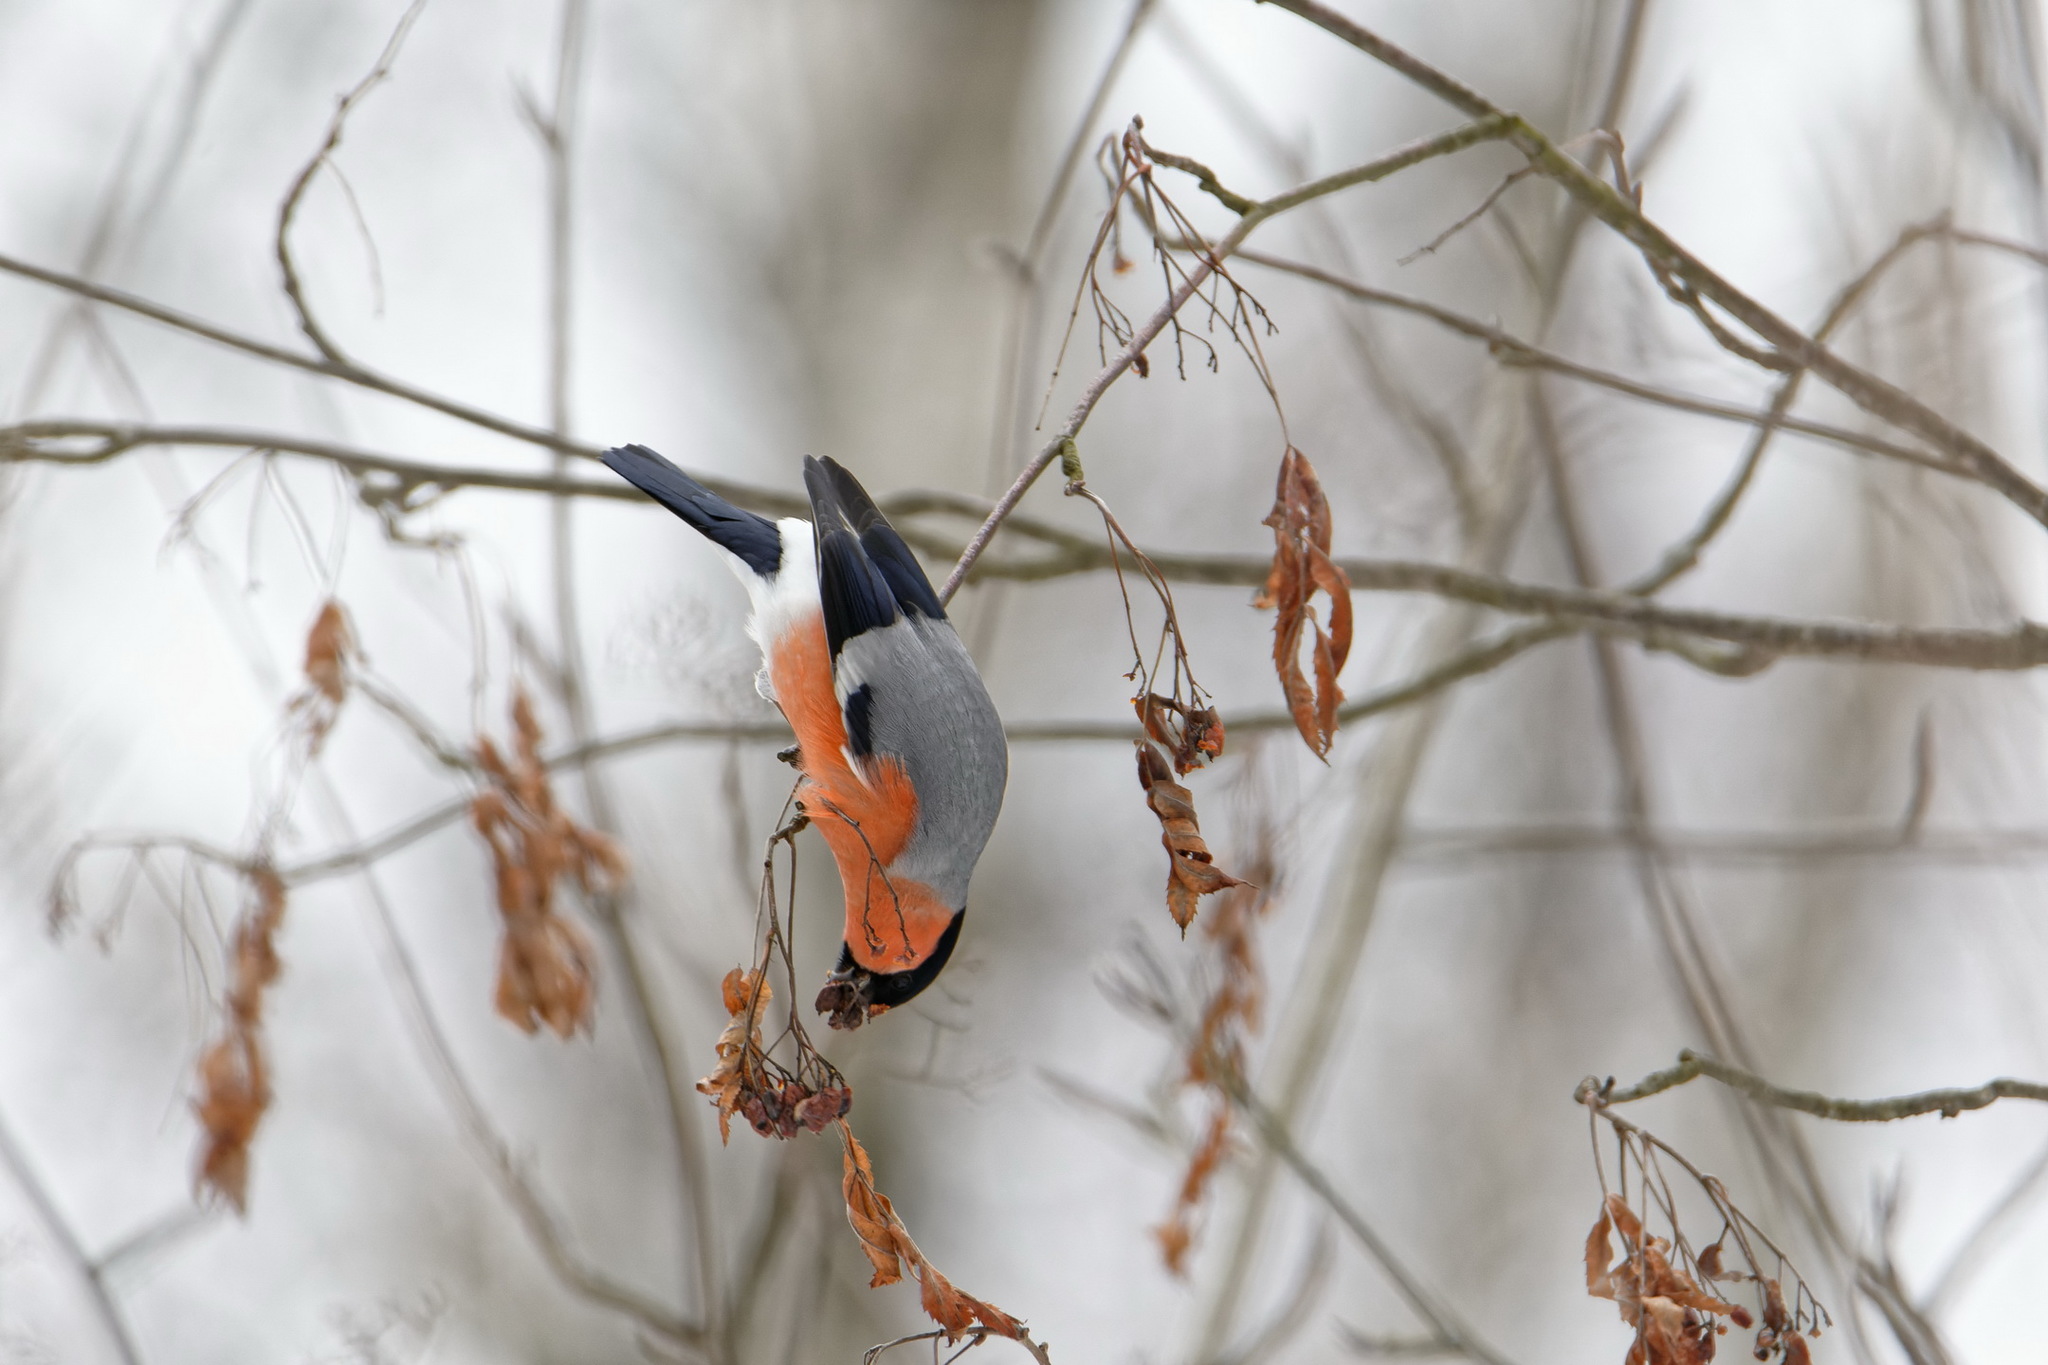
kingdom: Animalia
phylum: Chordata
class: Aves
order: Passeriformes
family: Fringillidae
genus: Pyrrhula
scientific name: Pyrrhula pyrrhula
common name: Eurasian bullfinch
